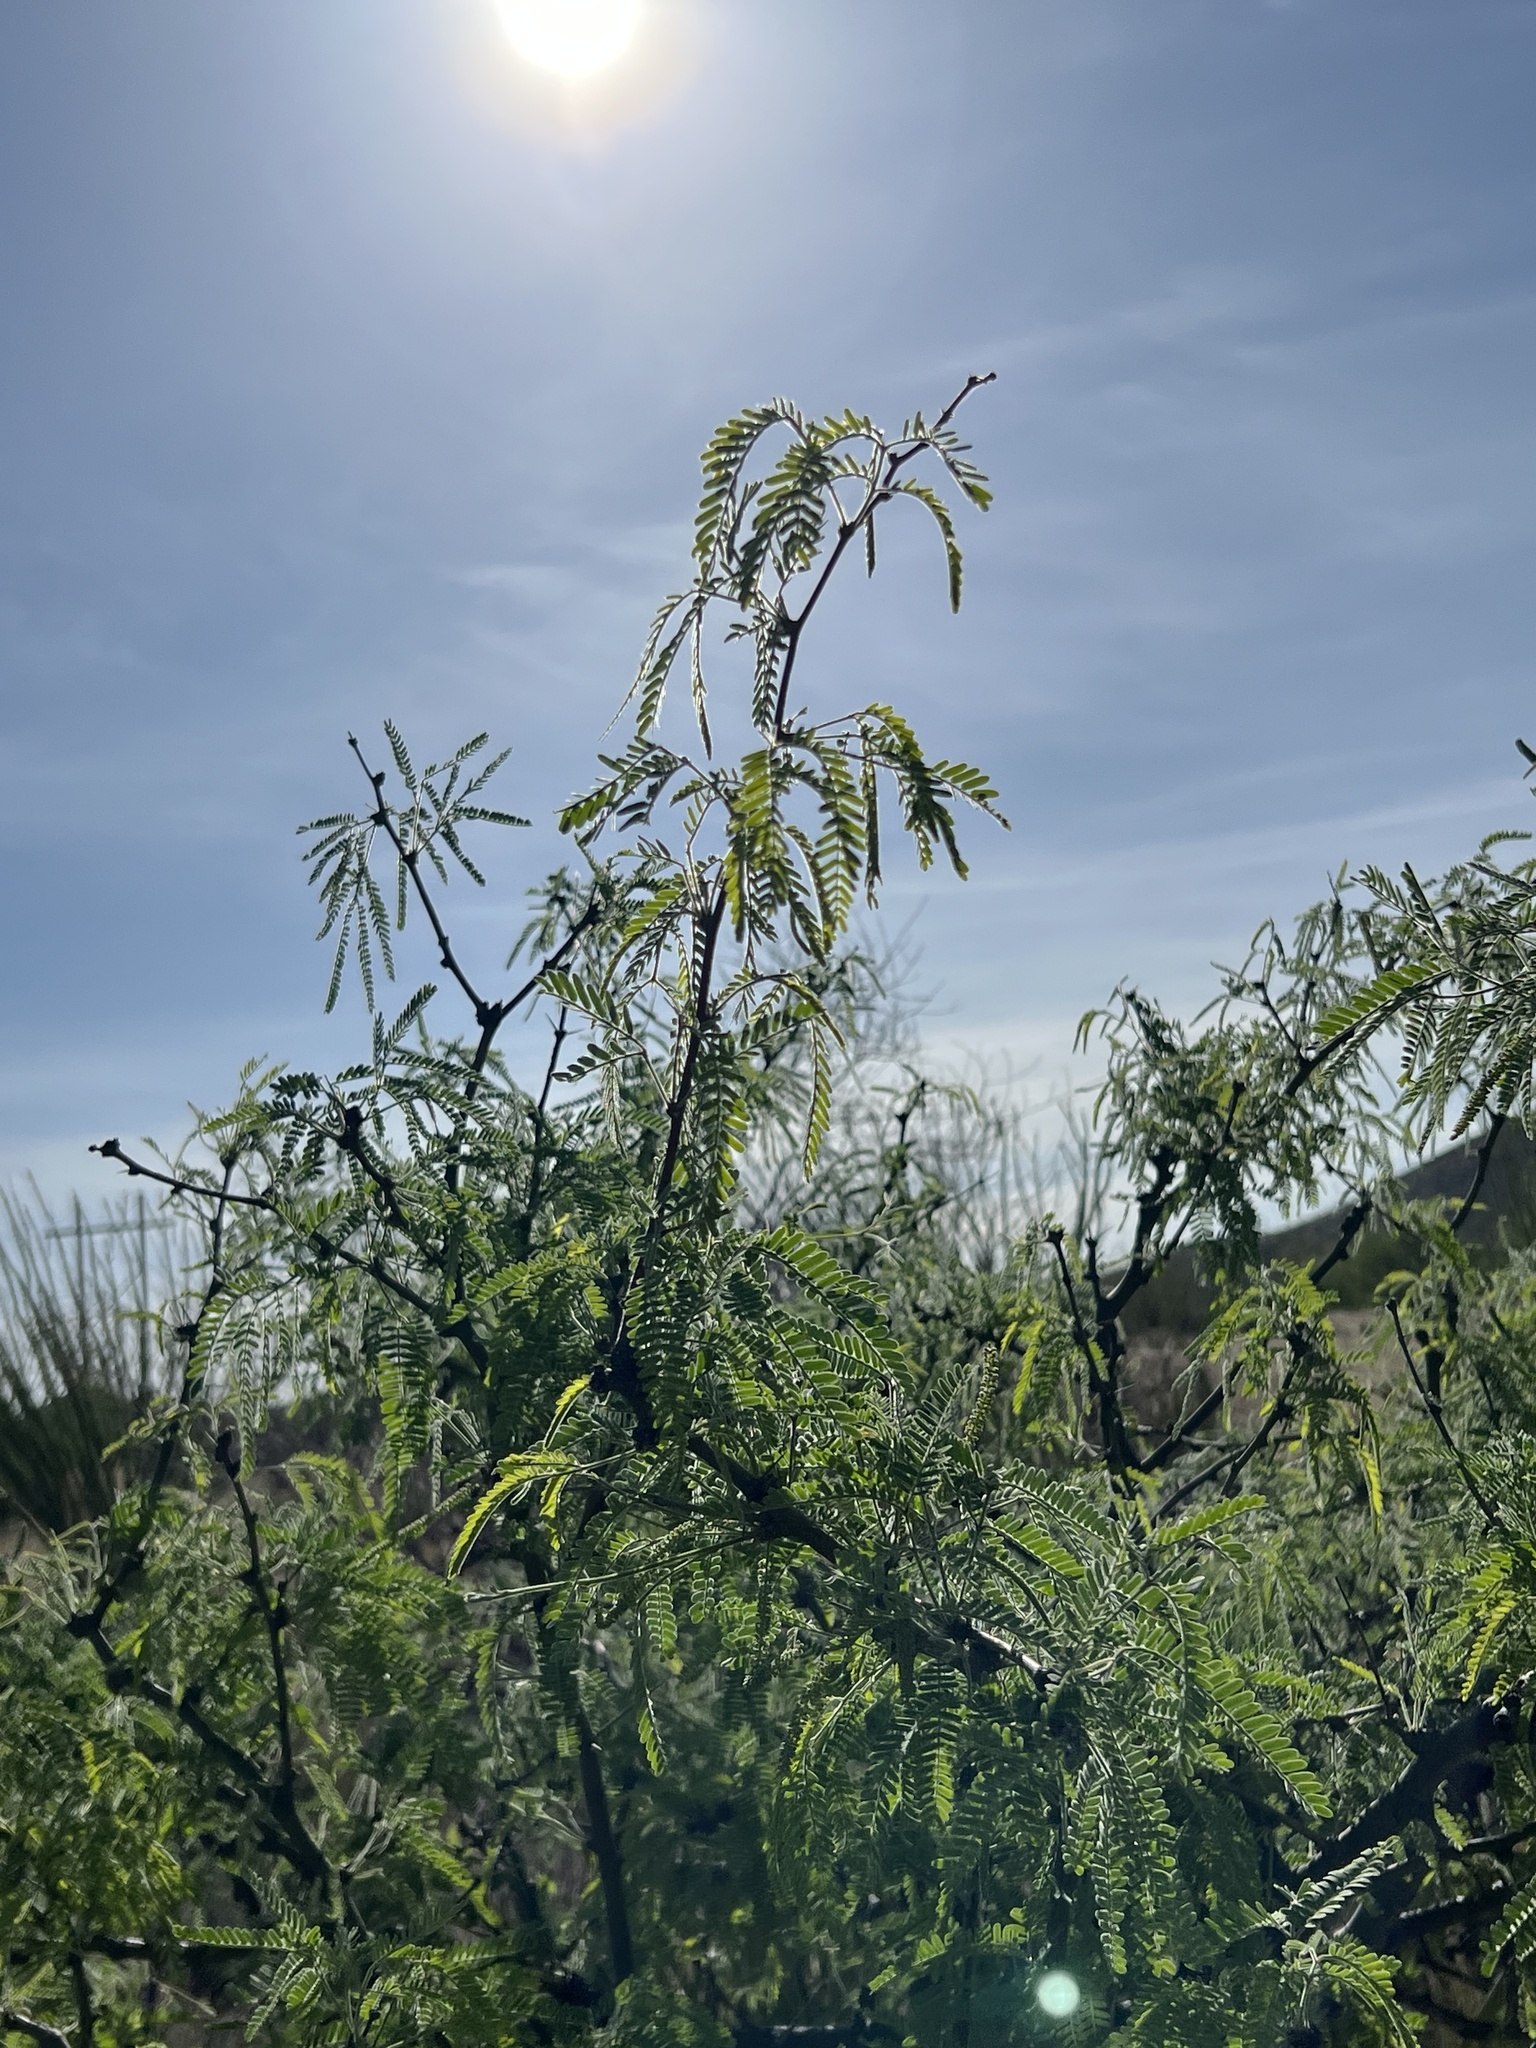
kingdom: Plantae
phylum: Tracheophyta
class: Magnoliopsida
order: Fabales
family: Fabaceae
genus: Prosopis
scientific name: Prosopis velutina
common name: Velvet mesquite
